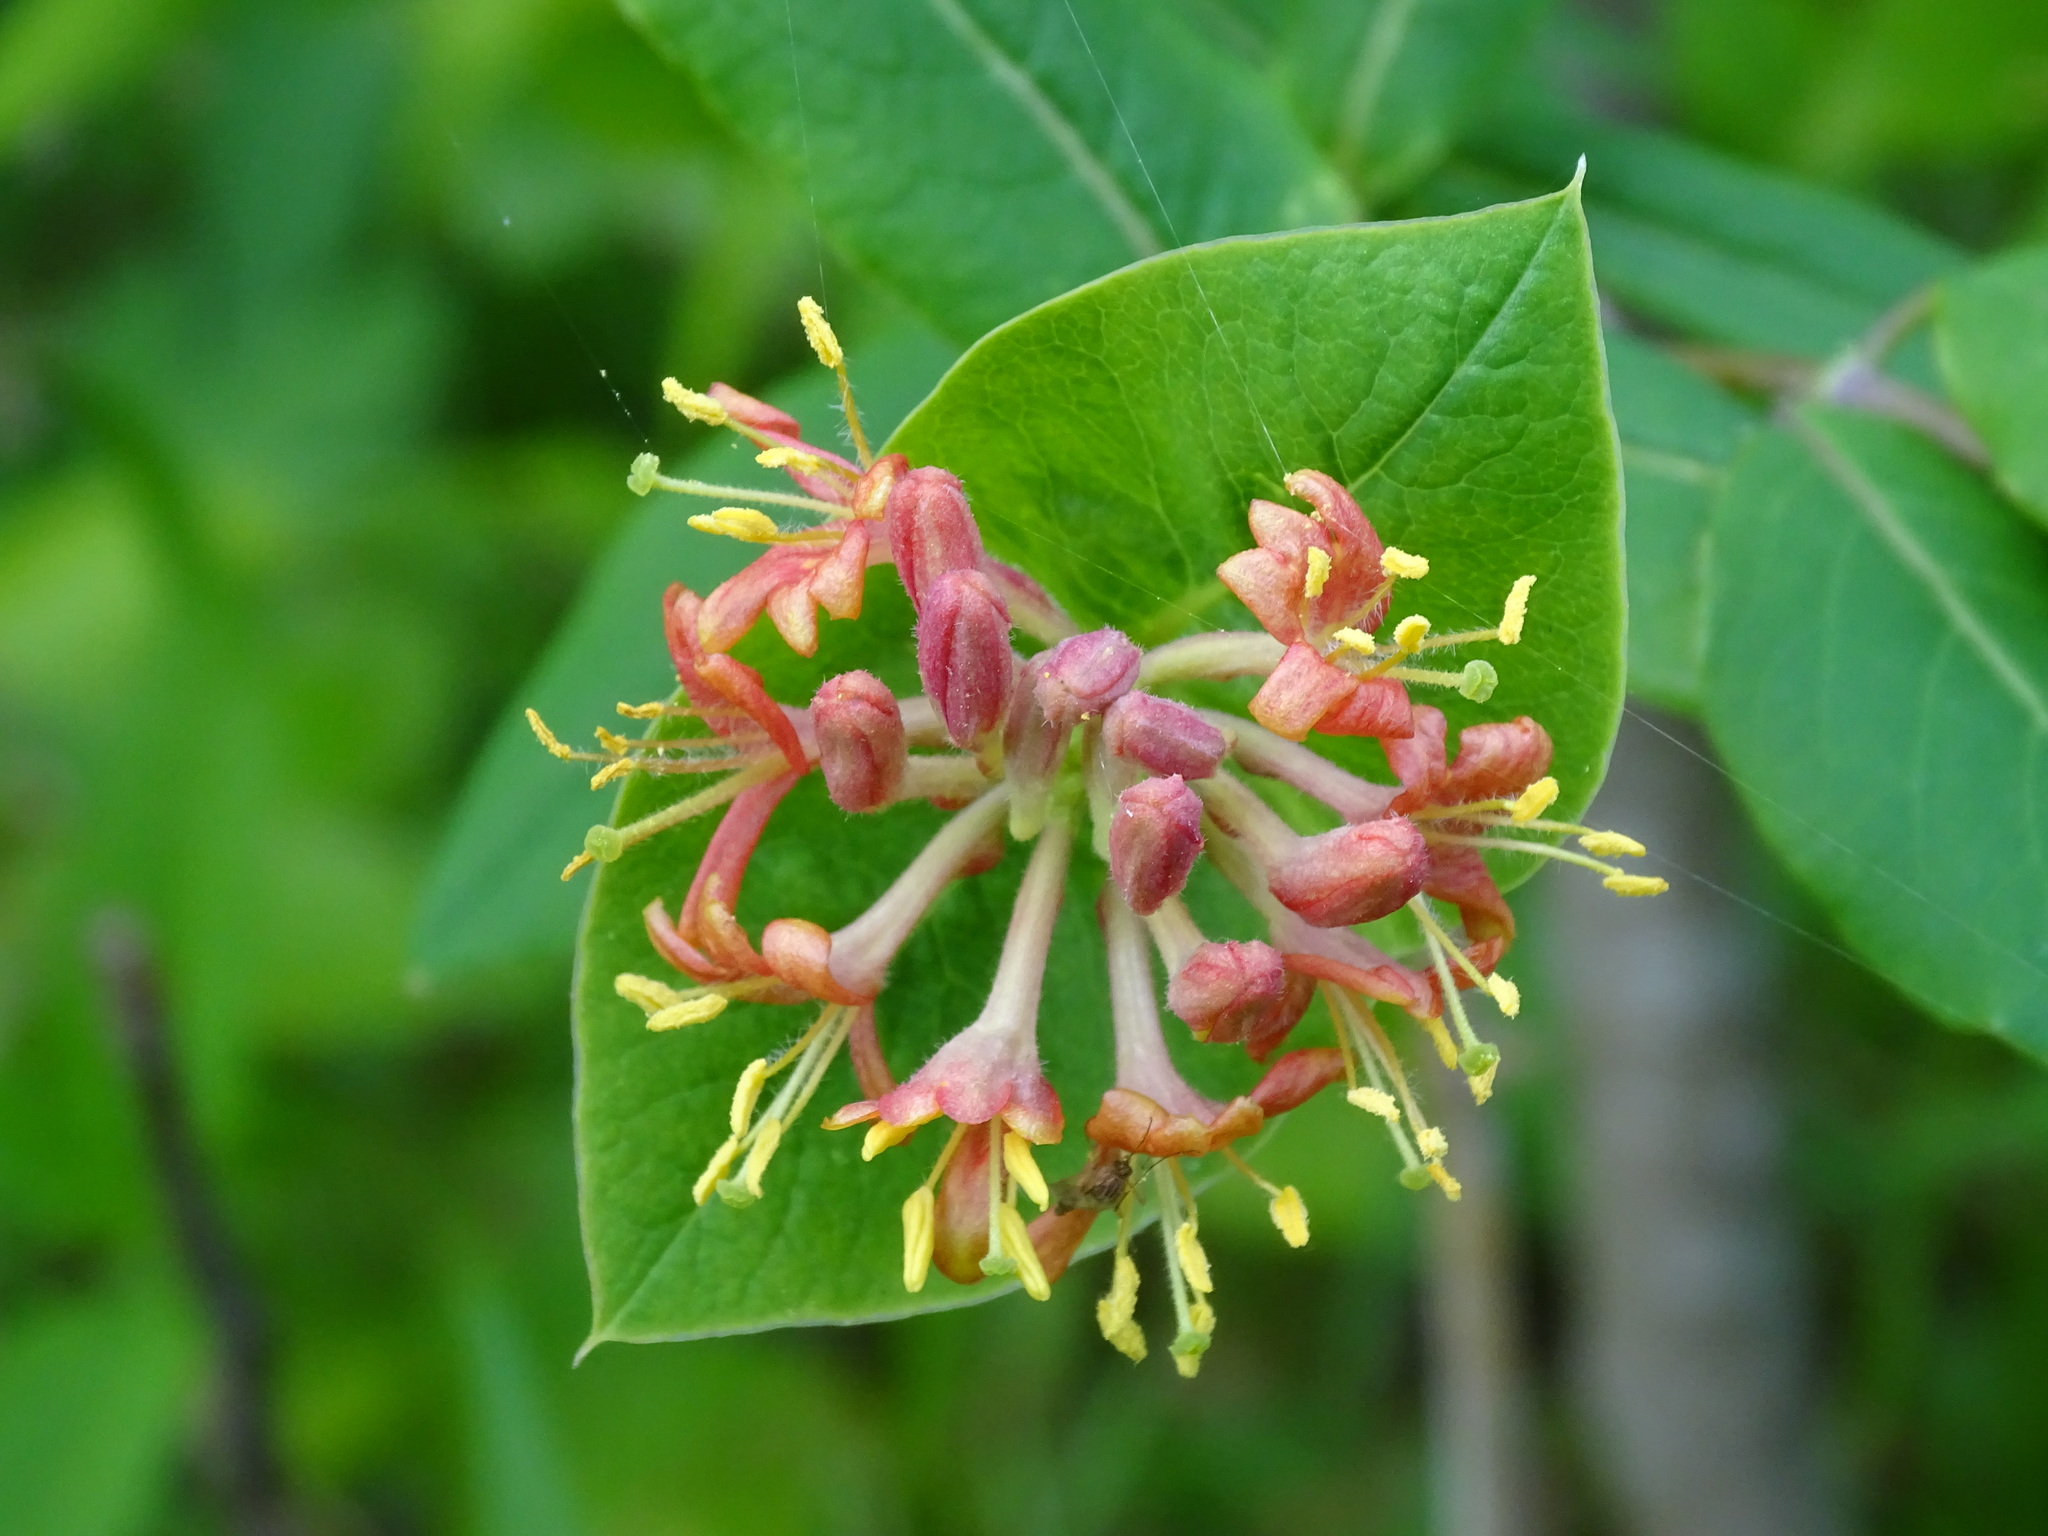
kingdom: Plantae
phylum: Tracheophyta
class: Magnoliopsida
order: Dipsacales
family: Caprifoliaceae
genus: Lonicera
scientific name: Lonicera dioica
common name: Limber honeysuckle
